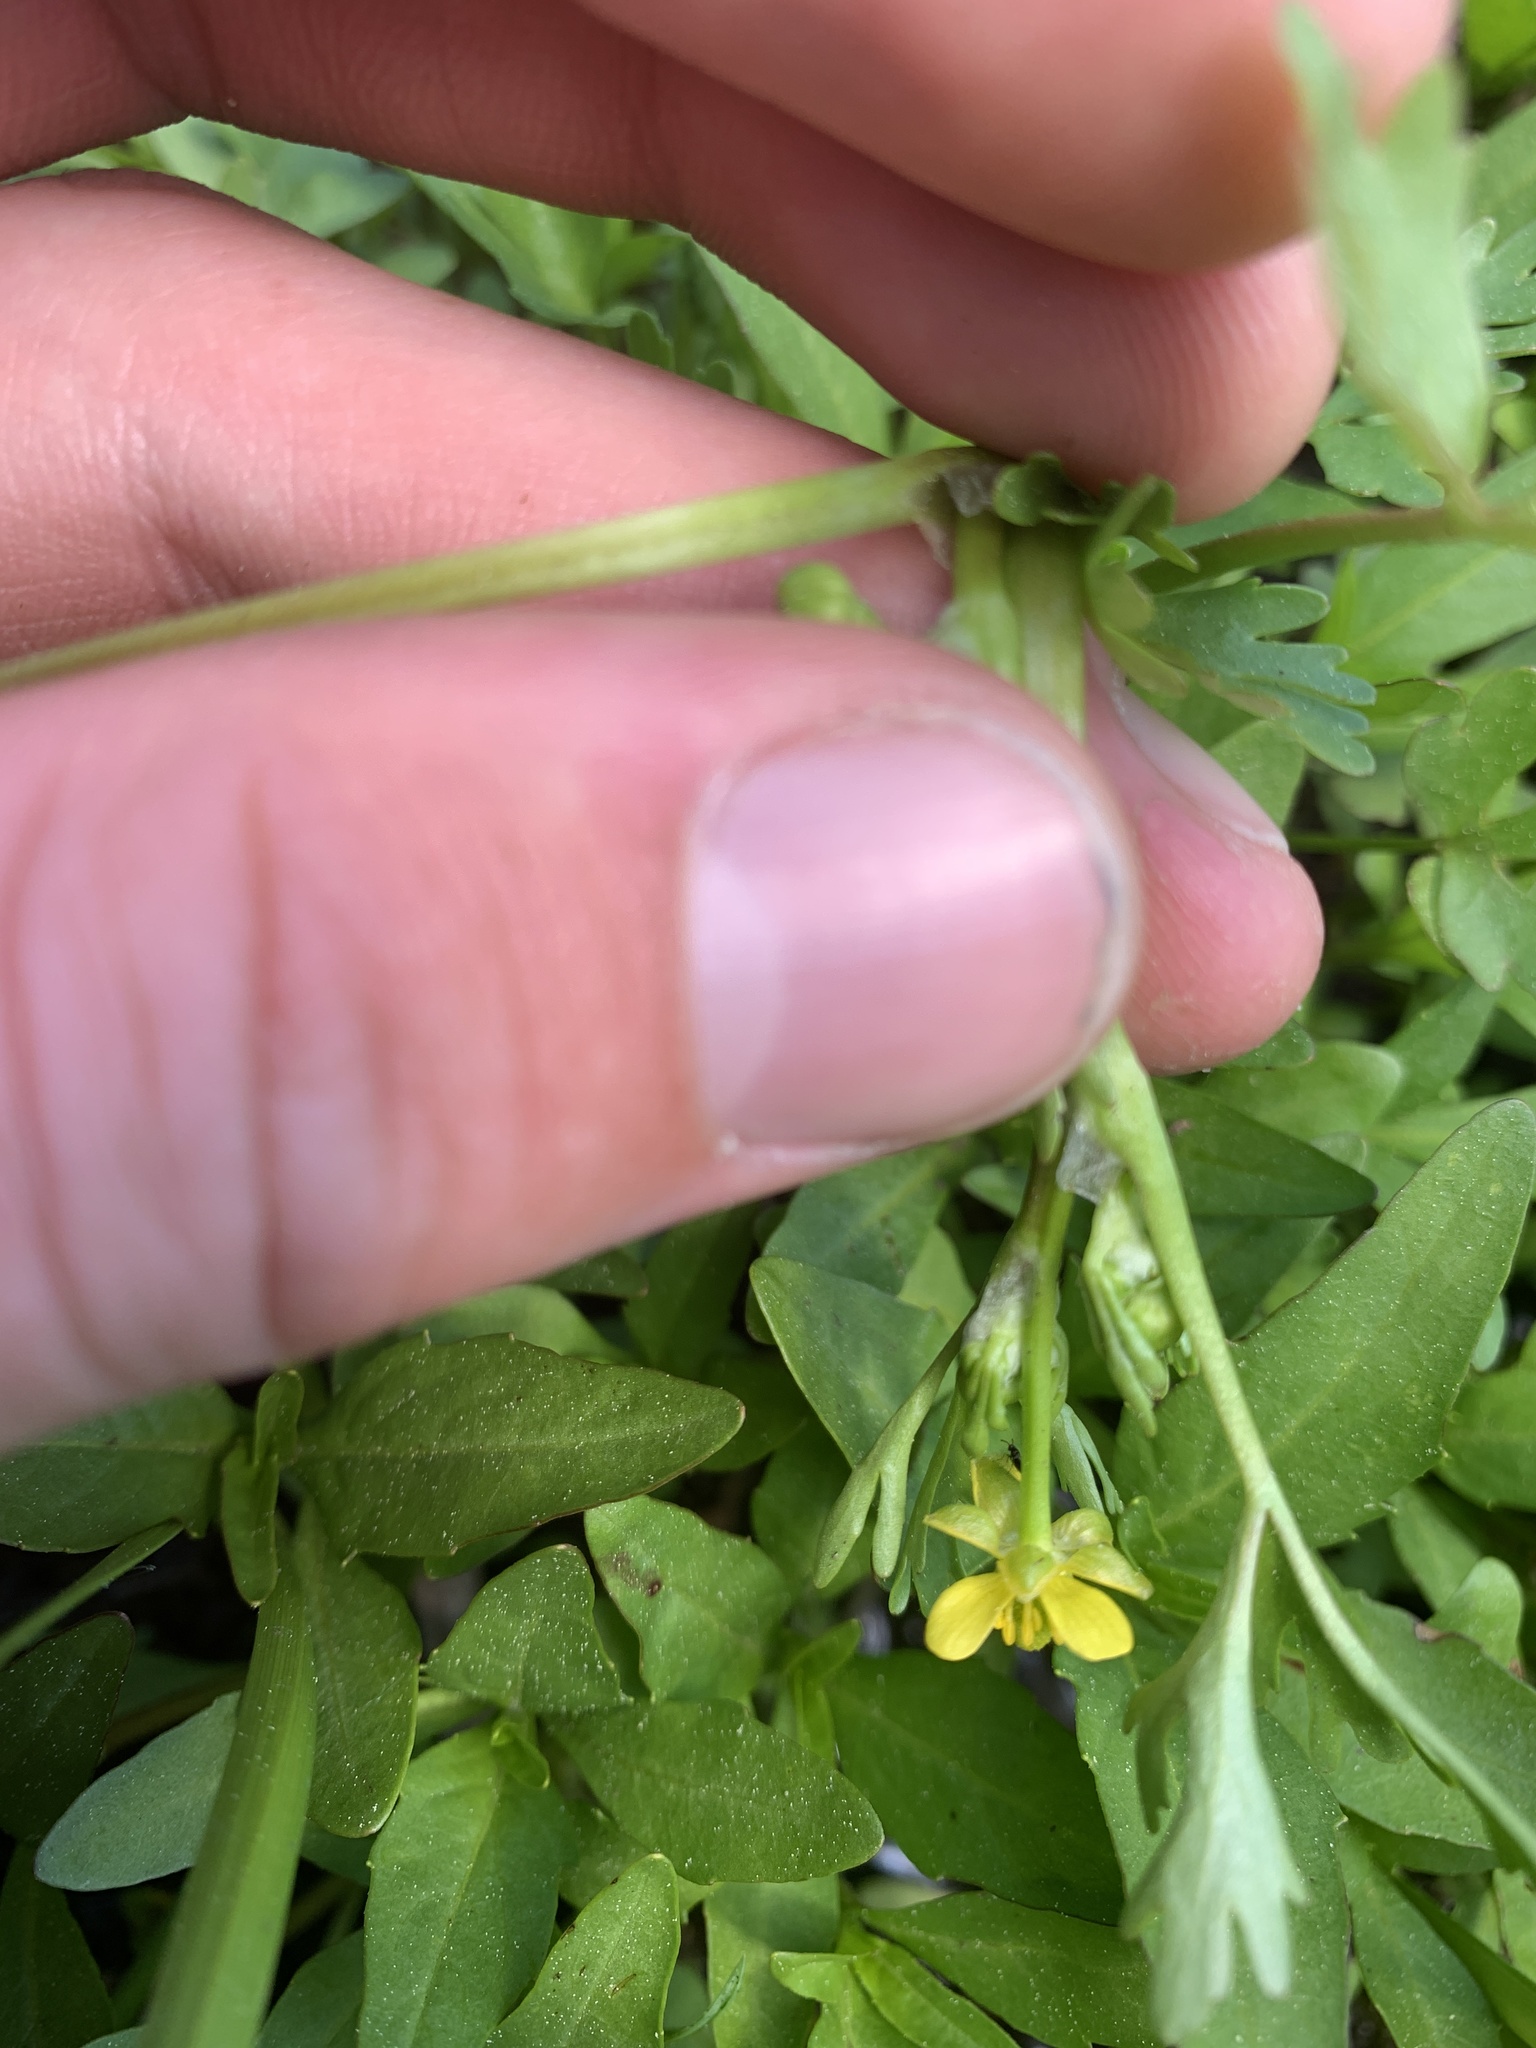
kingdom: Plantae
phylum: Tracheophyta
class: Magnoliopsida
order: Ranunculales
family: Ranunculaceae
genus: Ranunculus
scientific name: Ranunculus sceleratus
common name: Celery-leaved buttercup
